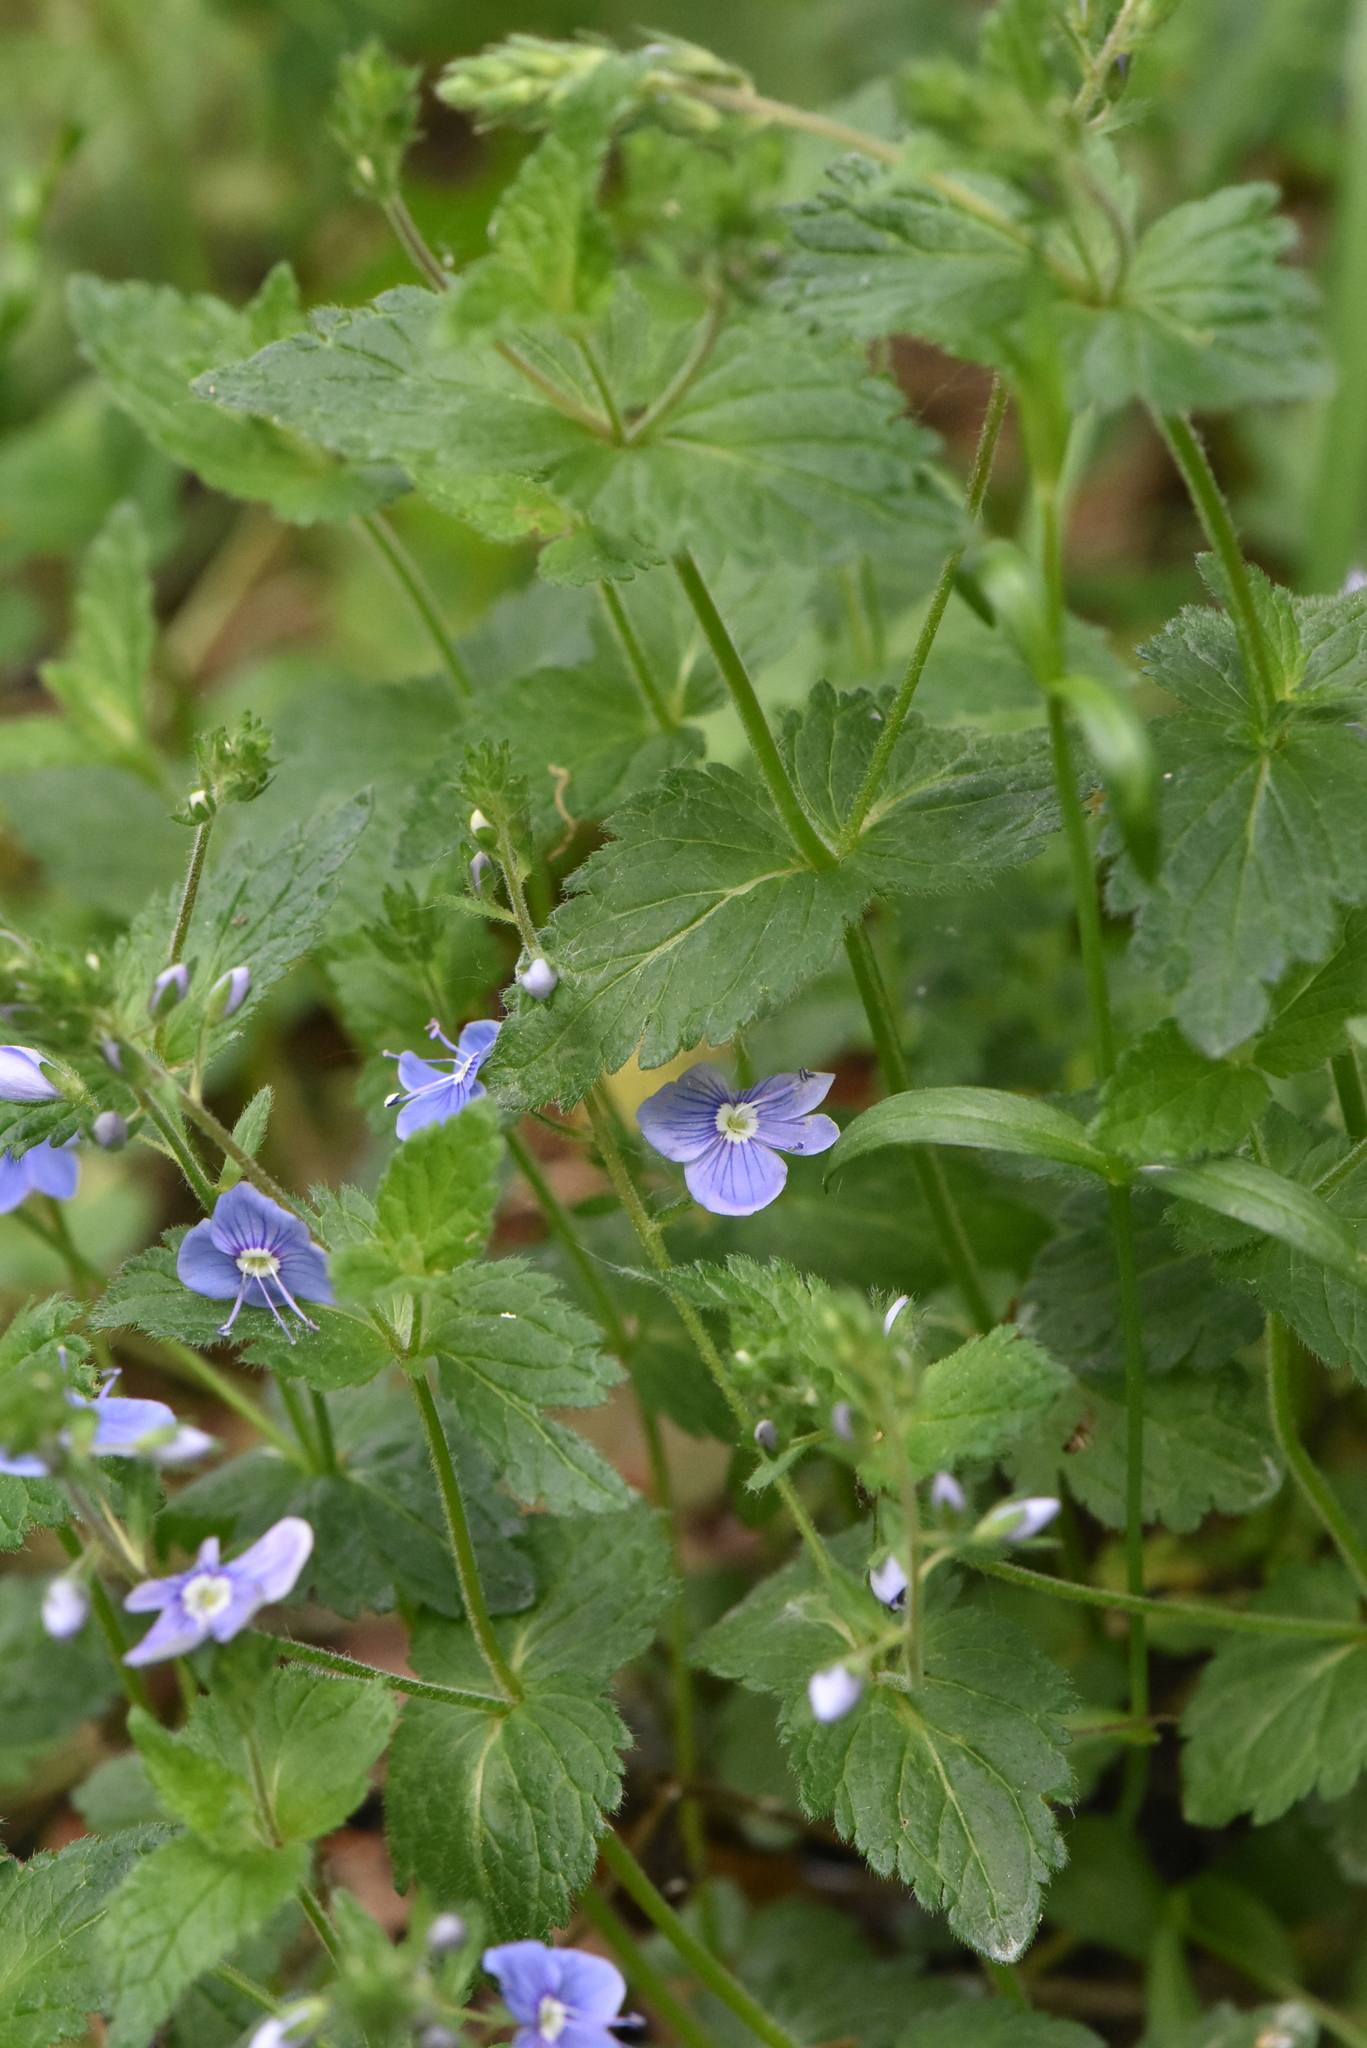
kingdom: Plantae
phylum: Tracheophyta
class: Magnoliopsida
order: Lamiales
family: Plantaginaceae
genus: Veronica
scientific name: Veronica chamaedrys
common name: Germander speedwell
